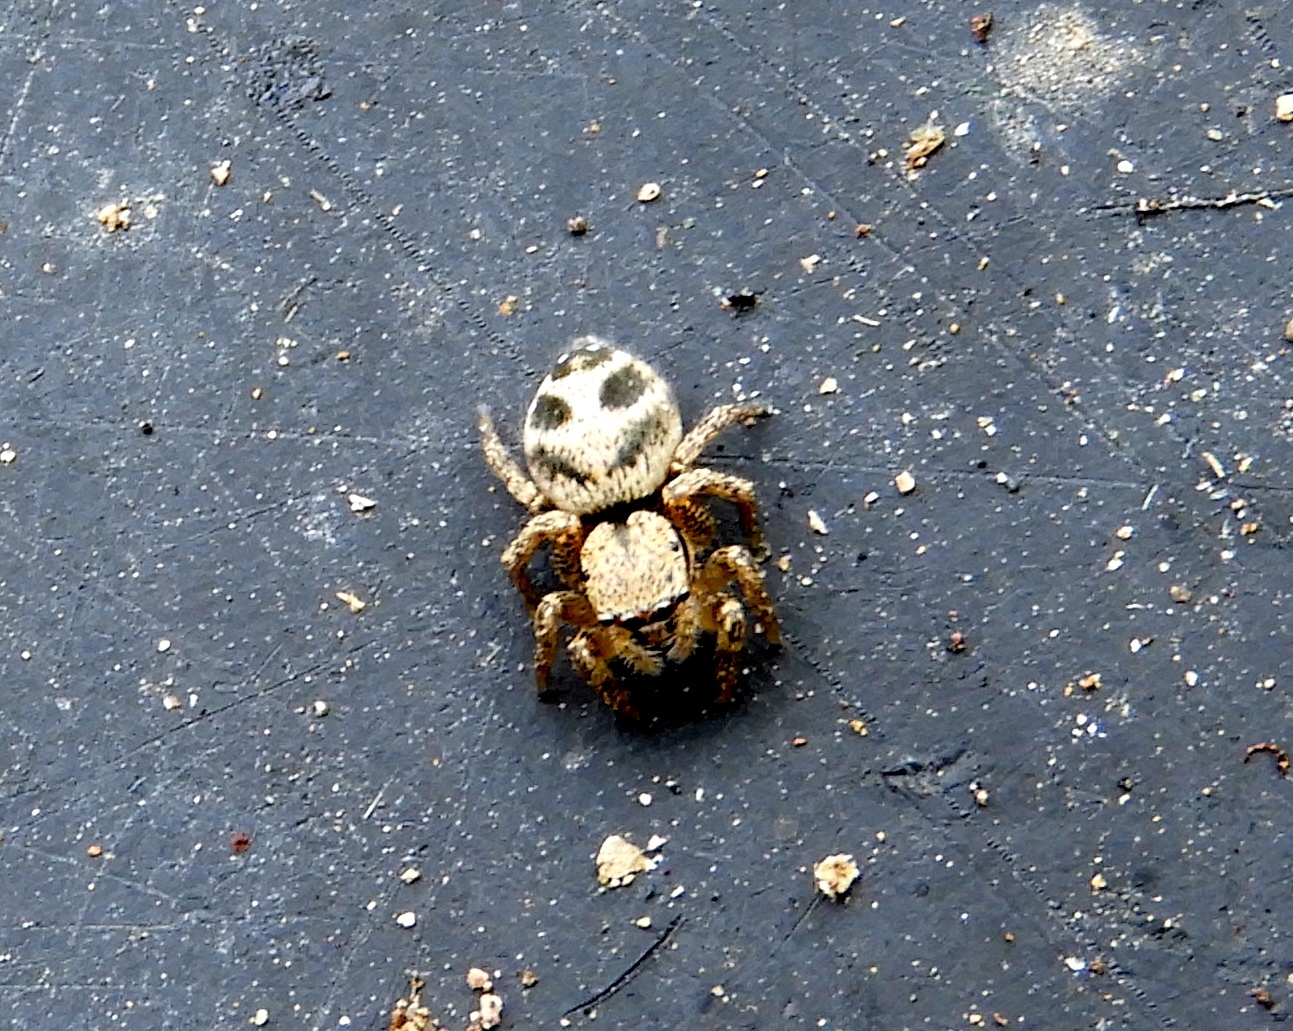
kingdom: Animalia
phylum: Arthropoda
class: Arachnida
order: Araneae
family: Salticidae
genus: Habronattus
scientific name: Habronattus
